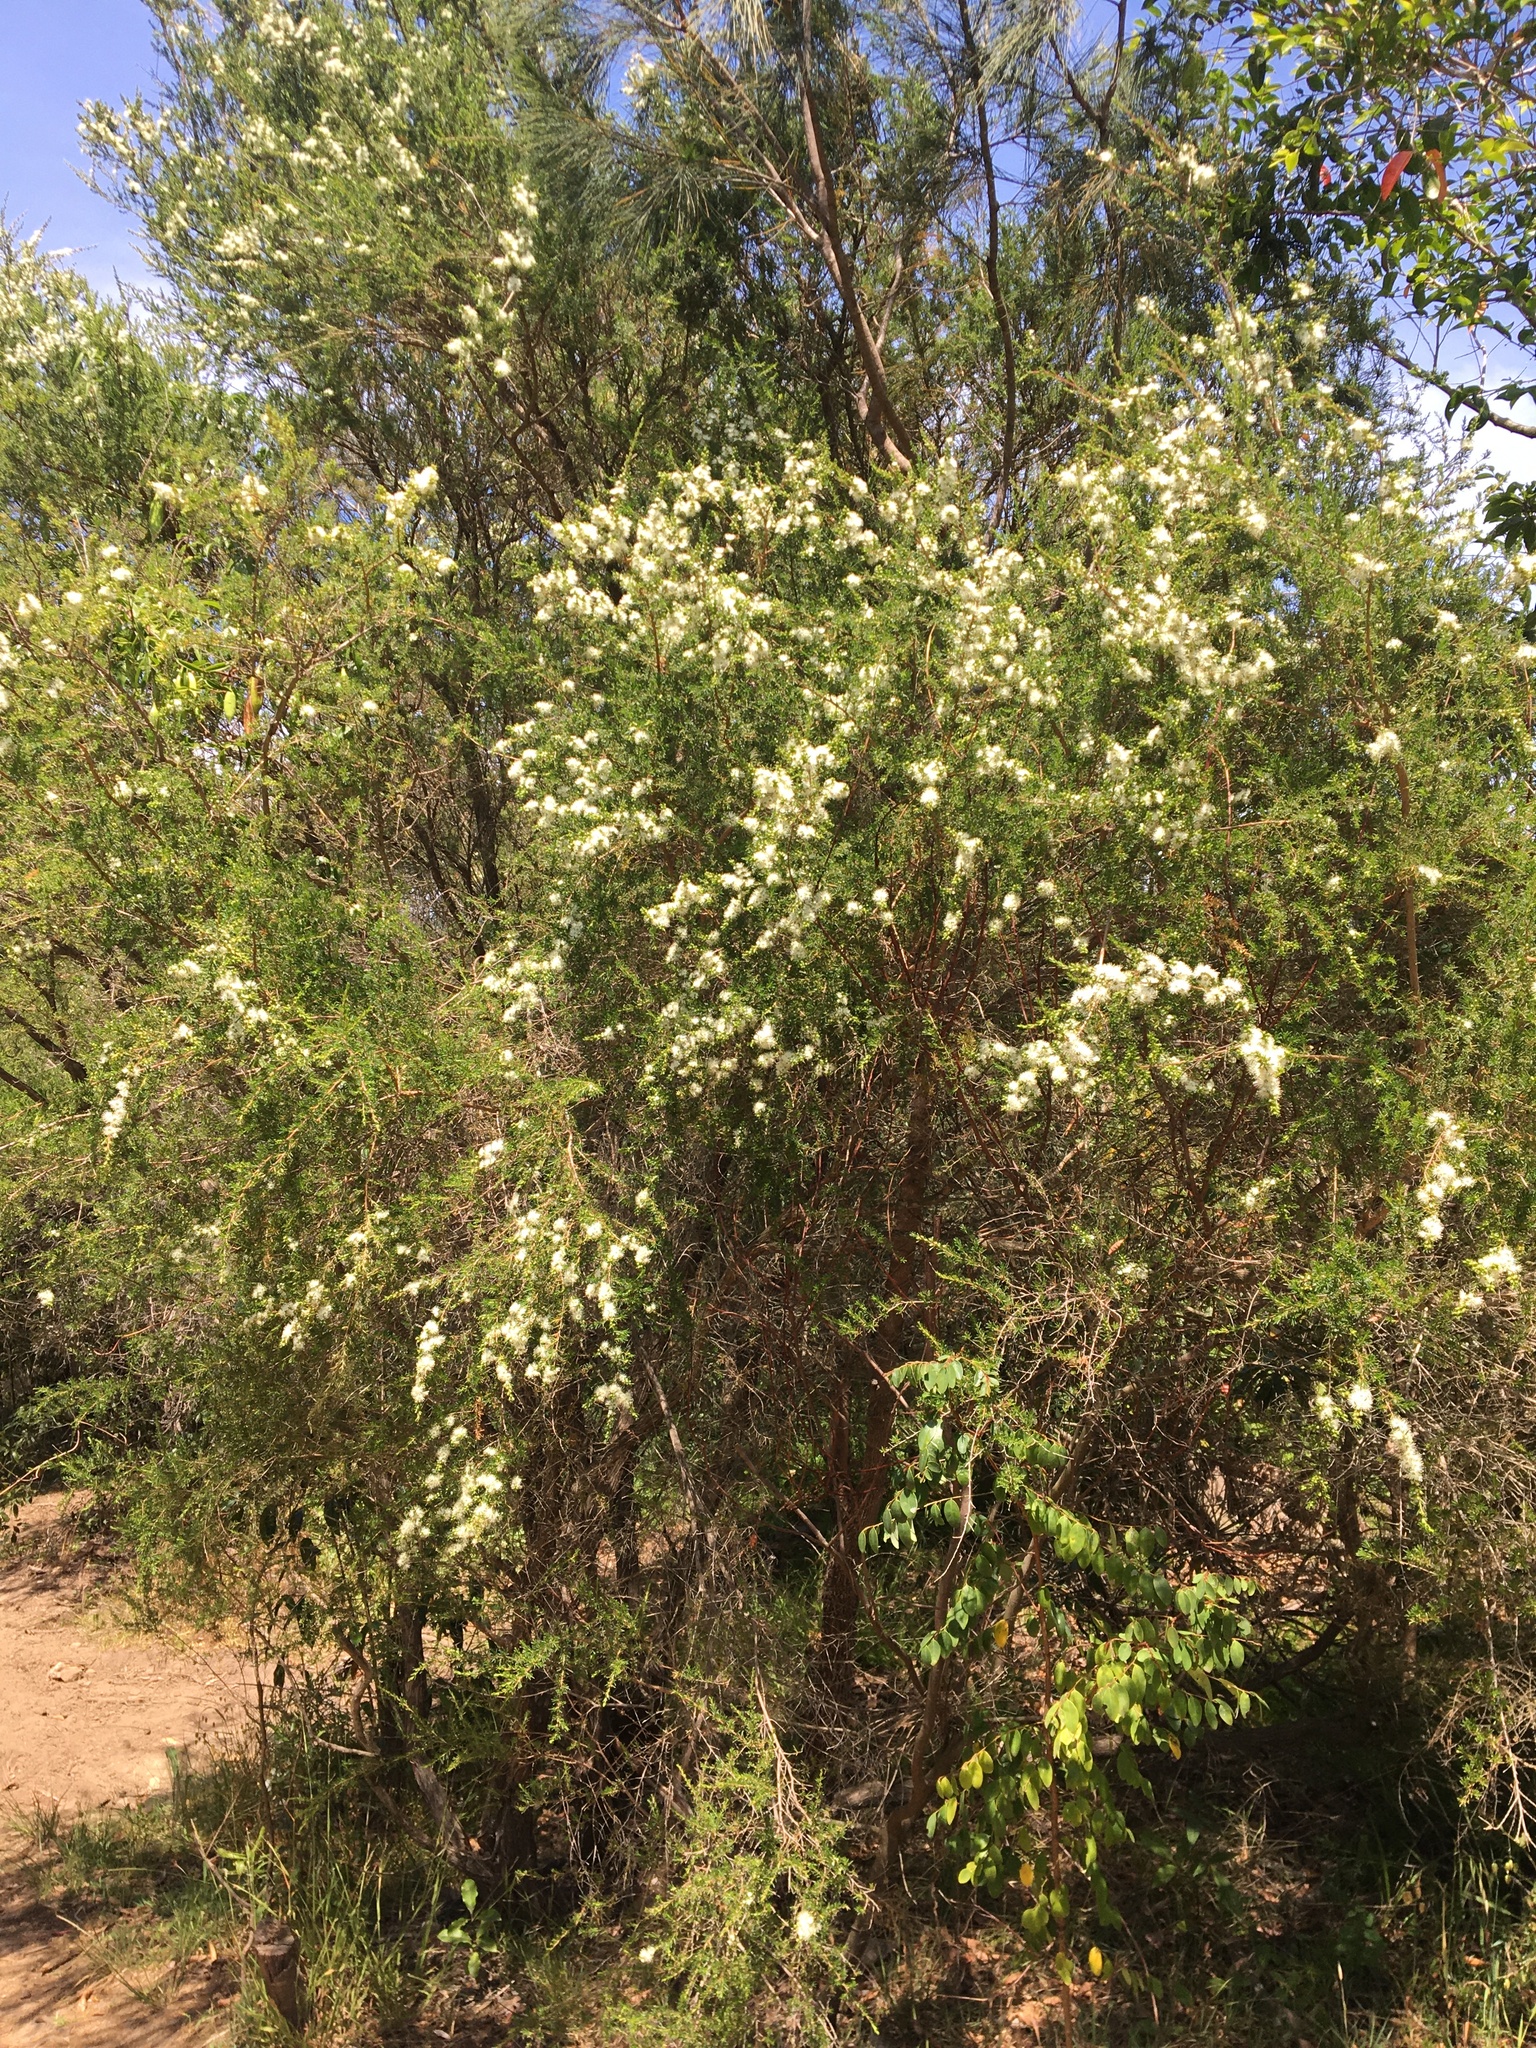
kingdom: Plantae
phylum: Tracheophyta
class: Magnoliopsida
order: Myrtales
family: Myrtaceae
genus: Kunzea
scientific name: Kunzea ambigua
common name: Tickbush
